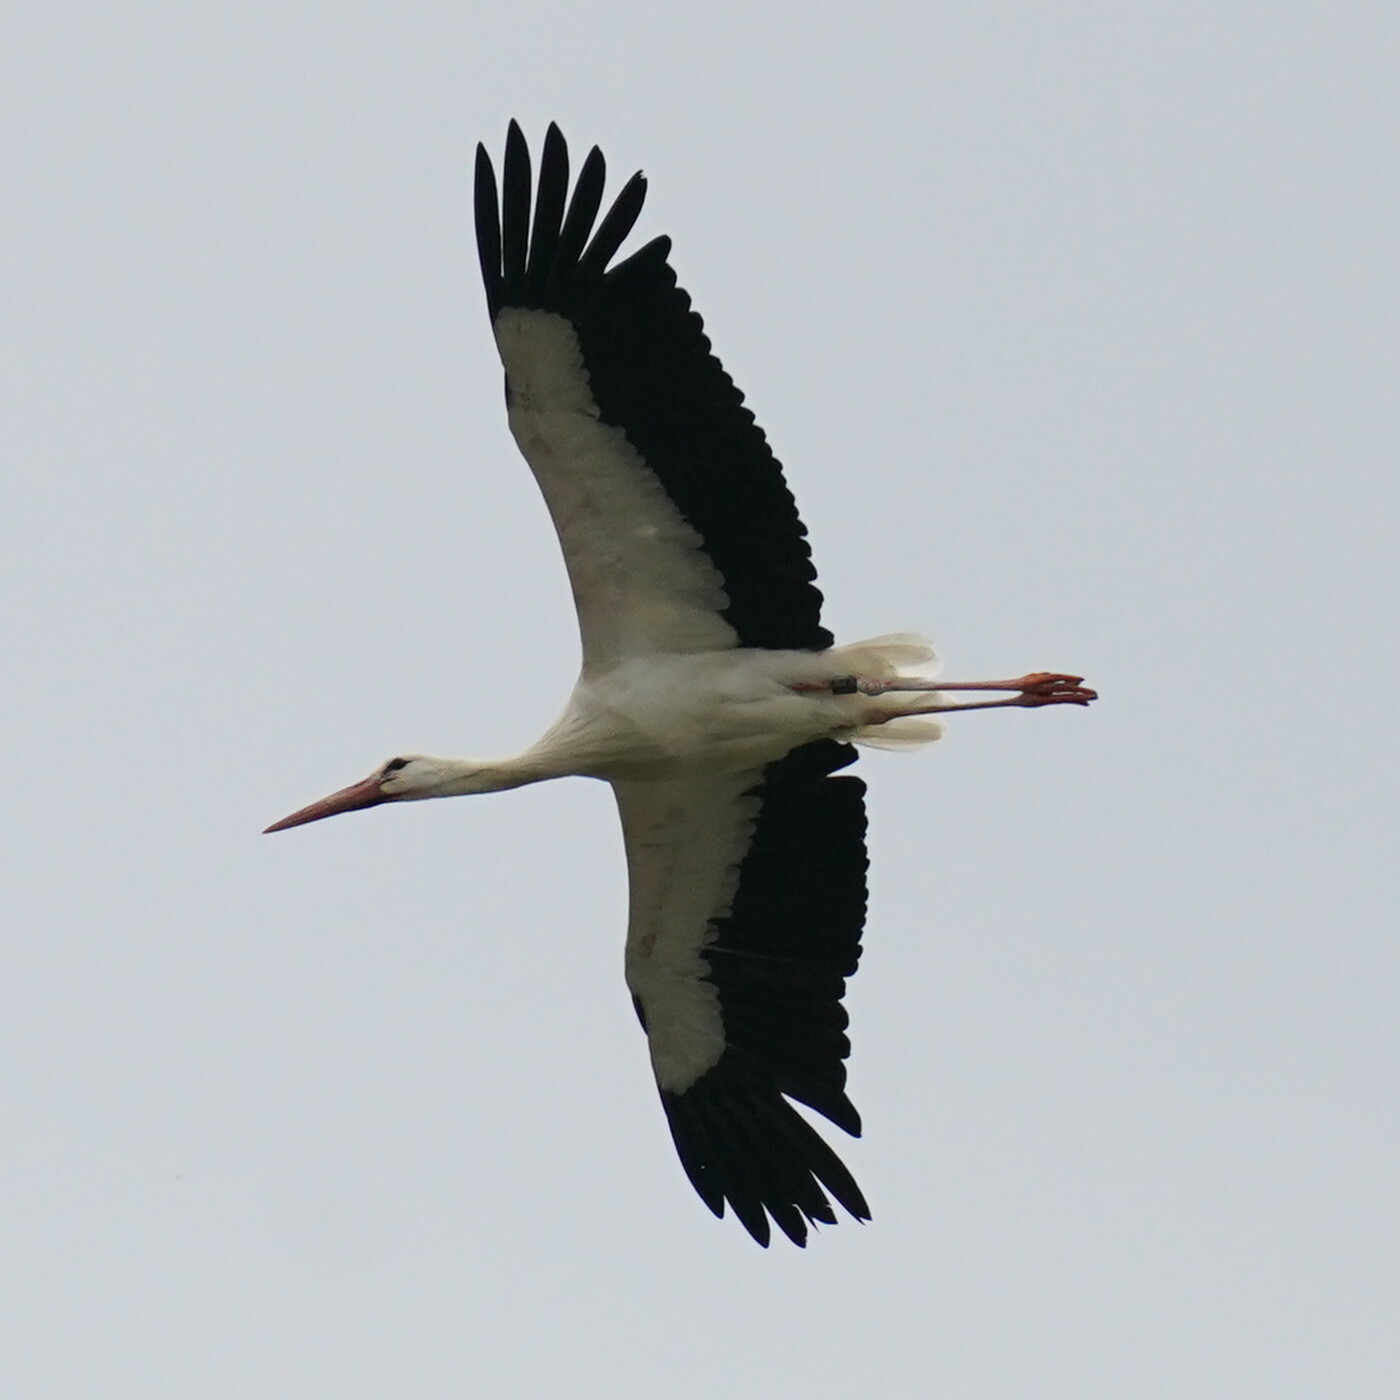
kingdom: Animalia
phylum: Chordata
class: Aves
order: Ciconiiformes
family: Ciconiidae
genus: Ciconia
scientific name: Ciconia ciconia
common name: White stork
